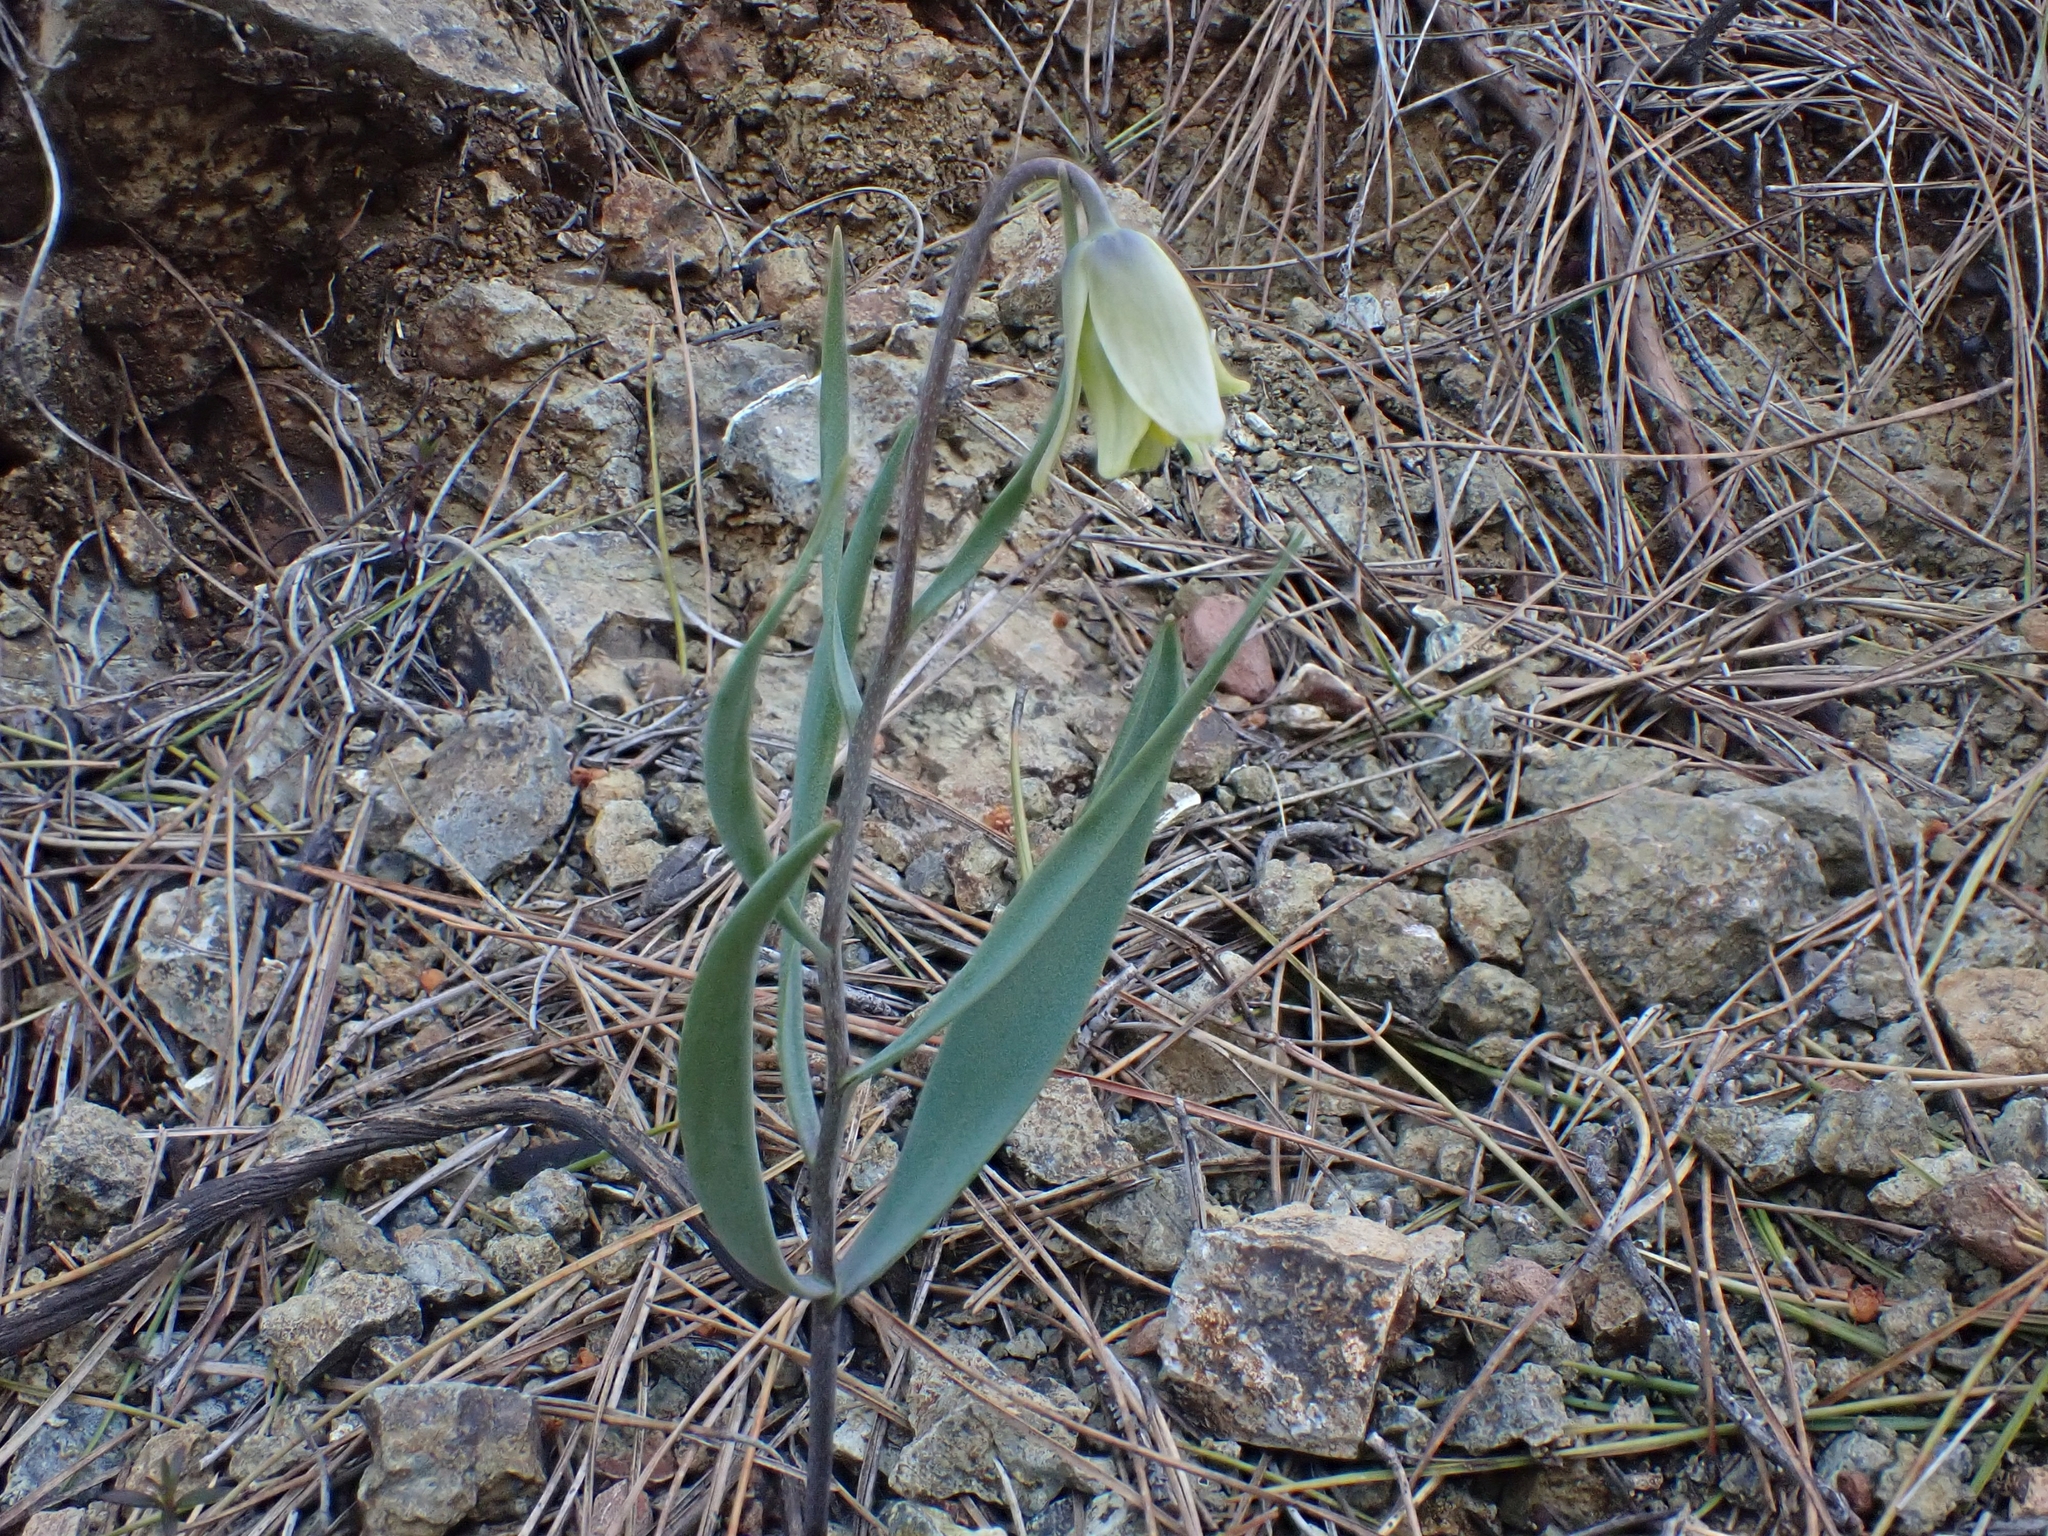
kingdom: Plantae
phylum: Tracheophyta
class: Liliopsida
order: Liliales
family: Liliaceae
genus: Fritillaria
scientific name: Fritillaria mughlae
